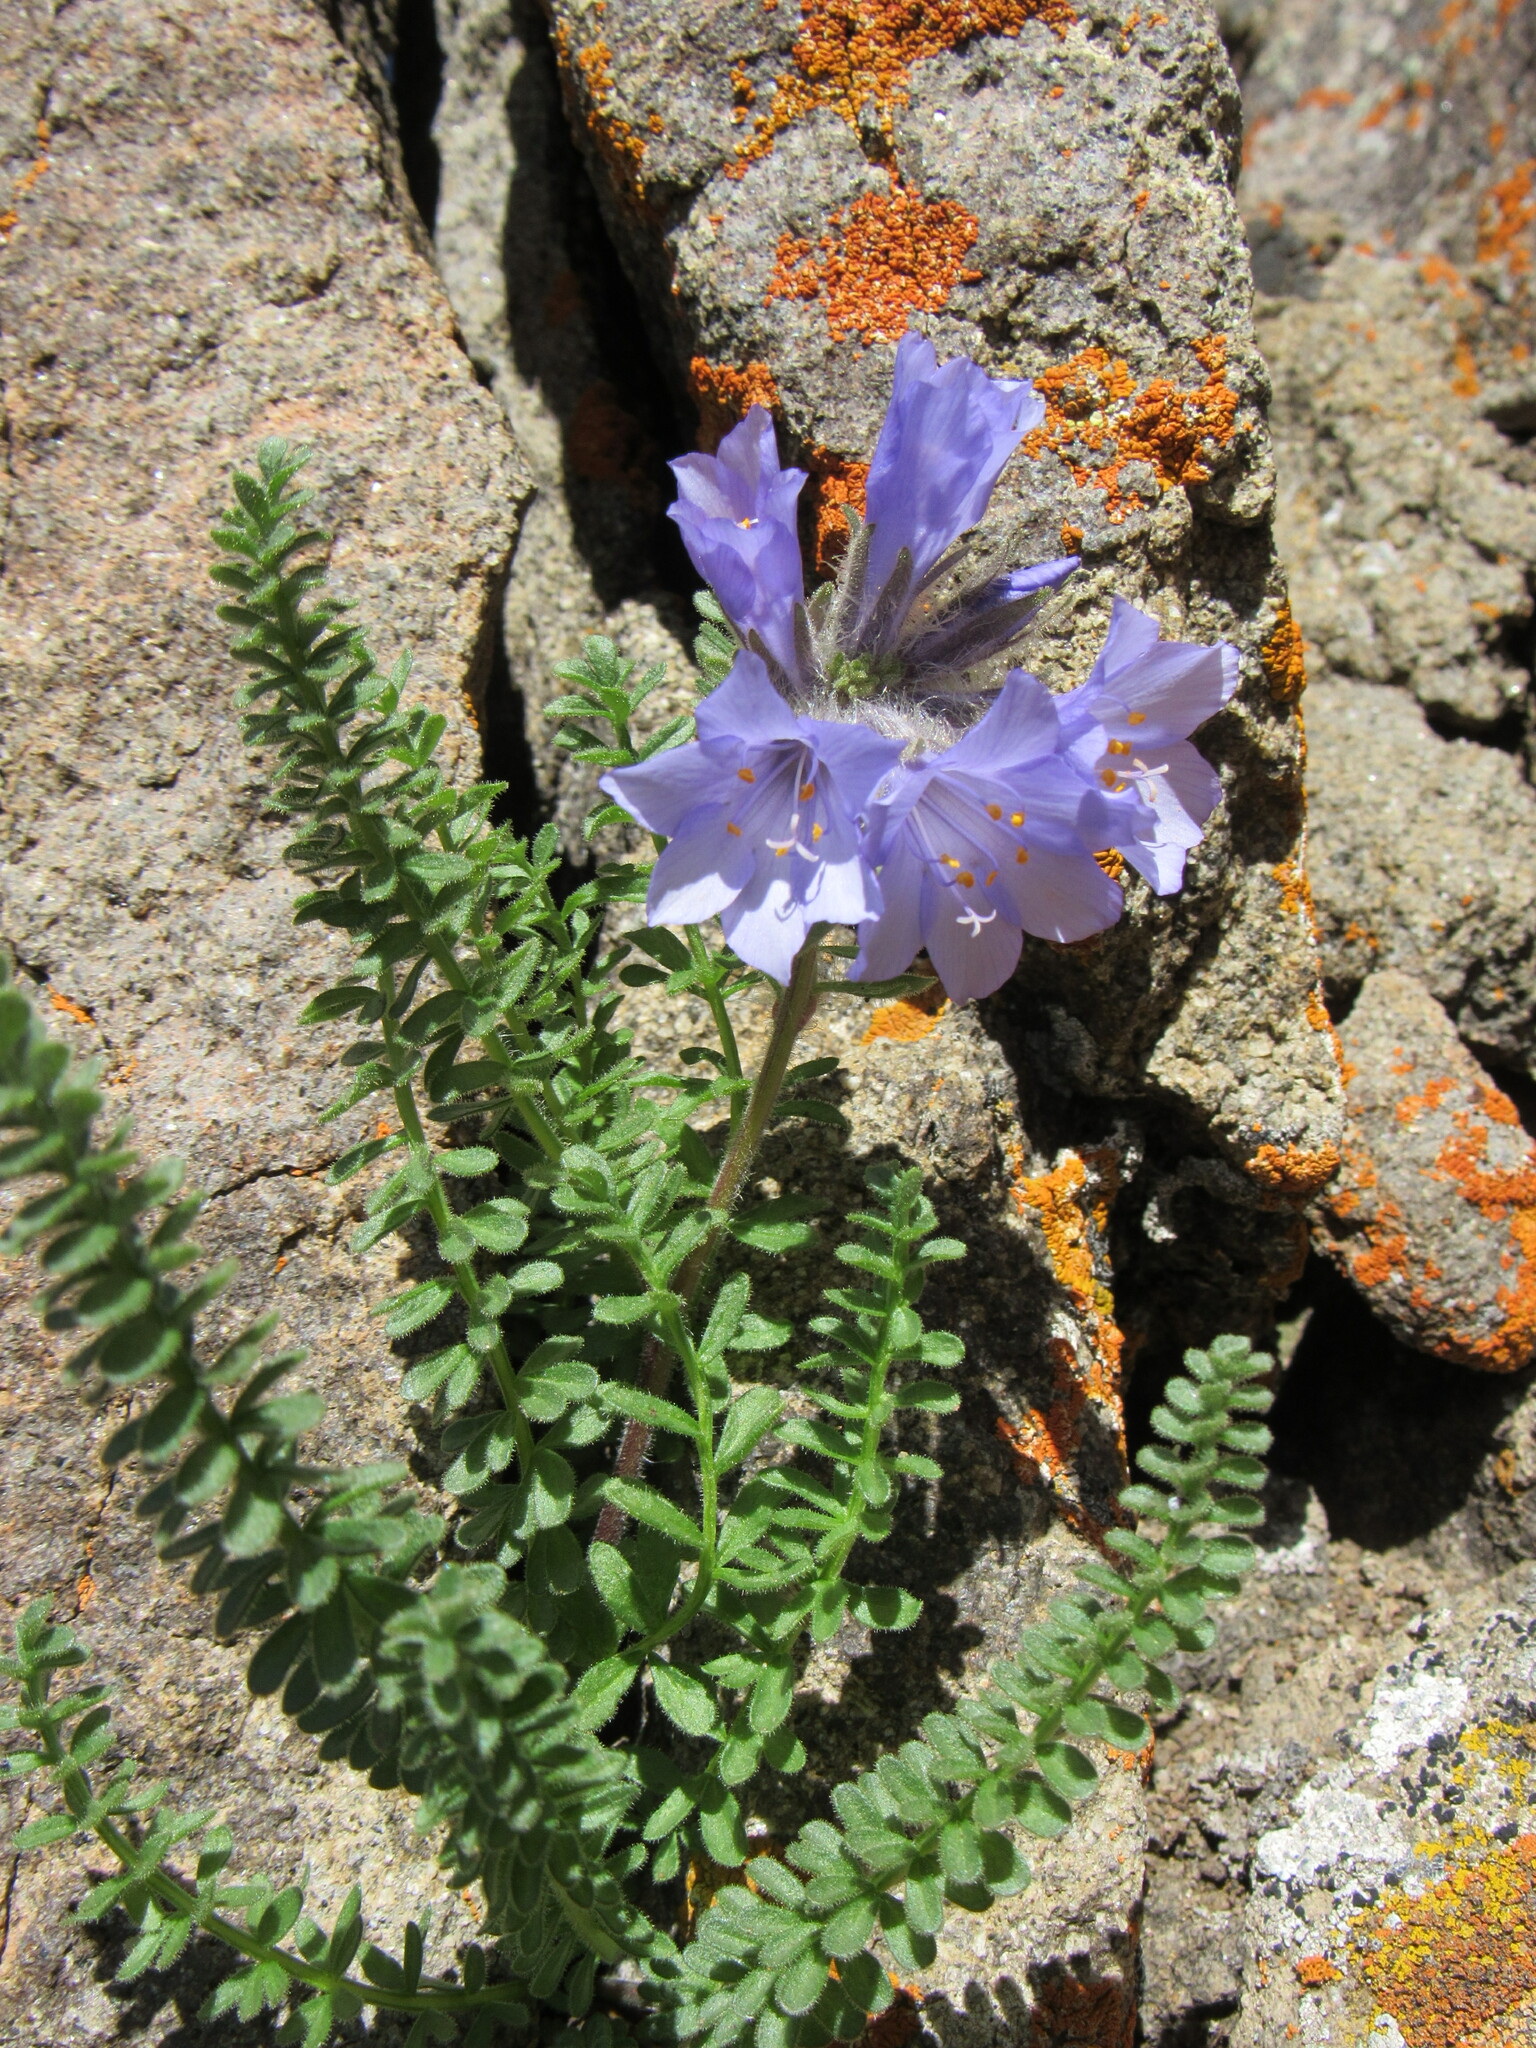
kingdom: Plantae
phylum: Tracheophyta
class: Magnoliopsida
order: Ericales
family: Polemoniaceae
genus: Polemonium
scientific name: Polemonium viscosum
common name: Skunk jacob's-ladder
